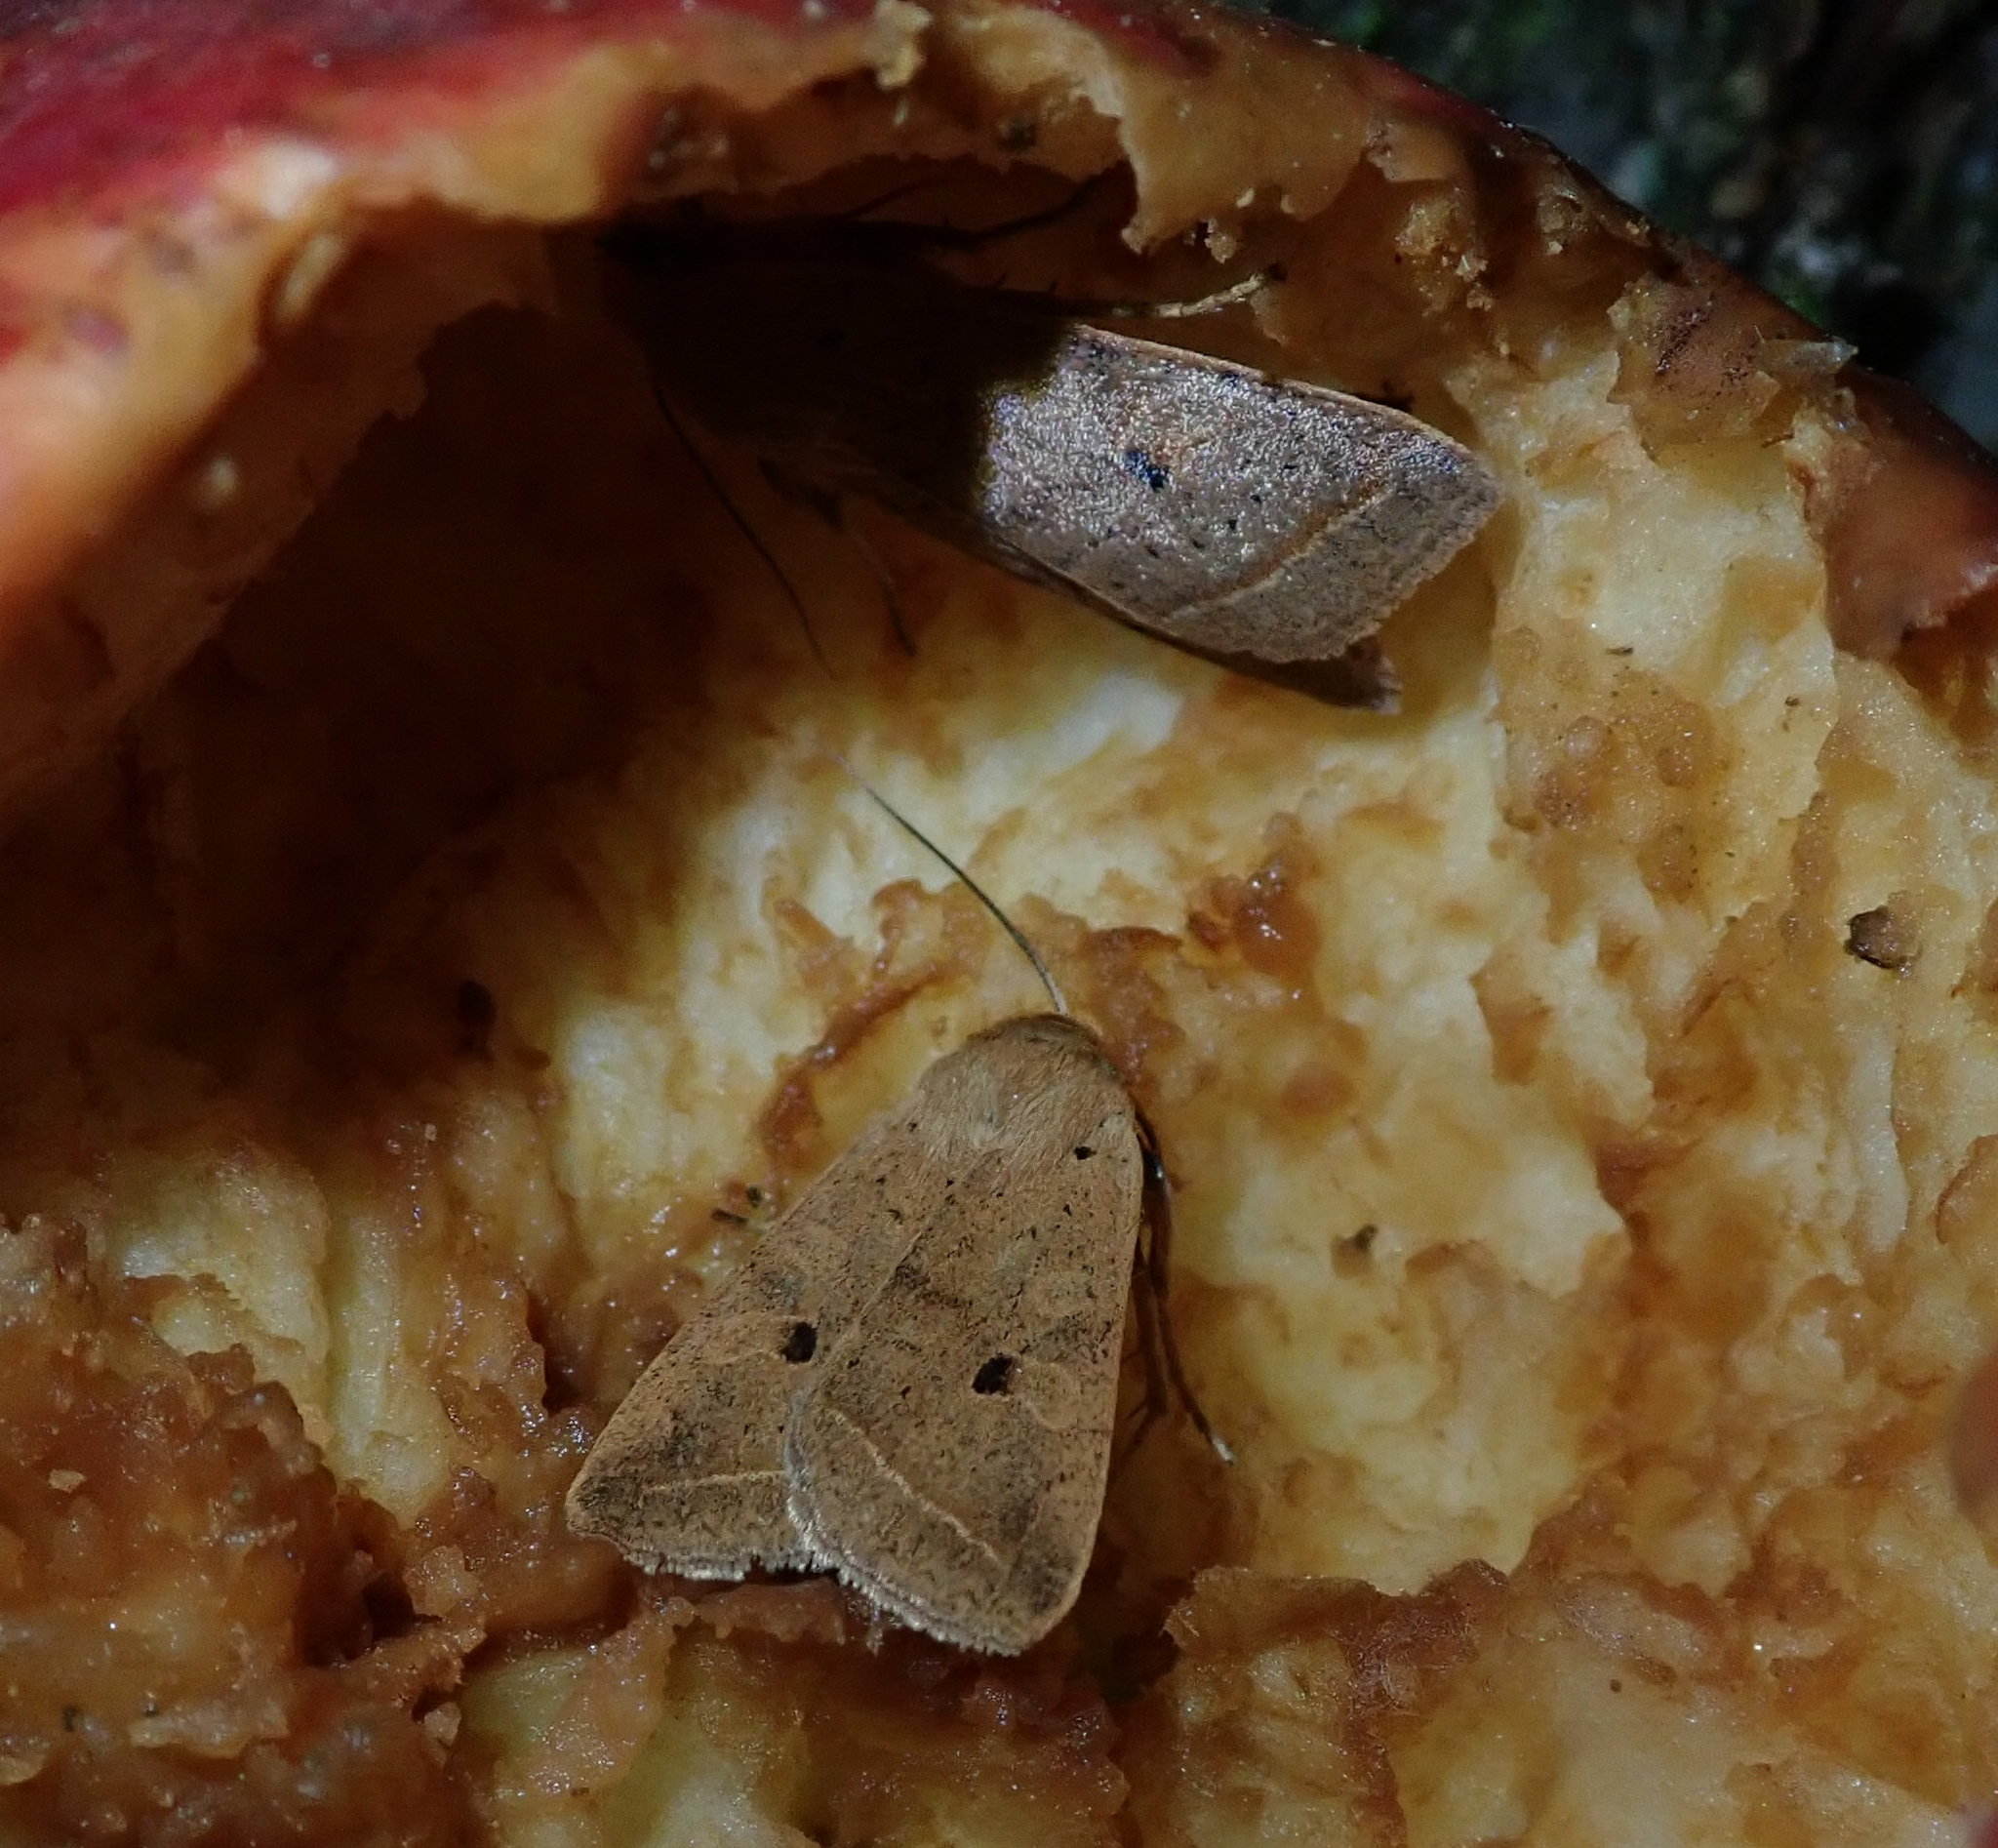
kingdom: Animalia
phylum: Arthropoda
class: Insecta
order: Lepidoptera
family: Noctuidae
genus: Agrochola
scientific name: Agrochola macilenta
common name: Yellow-line quaker
